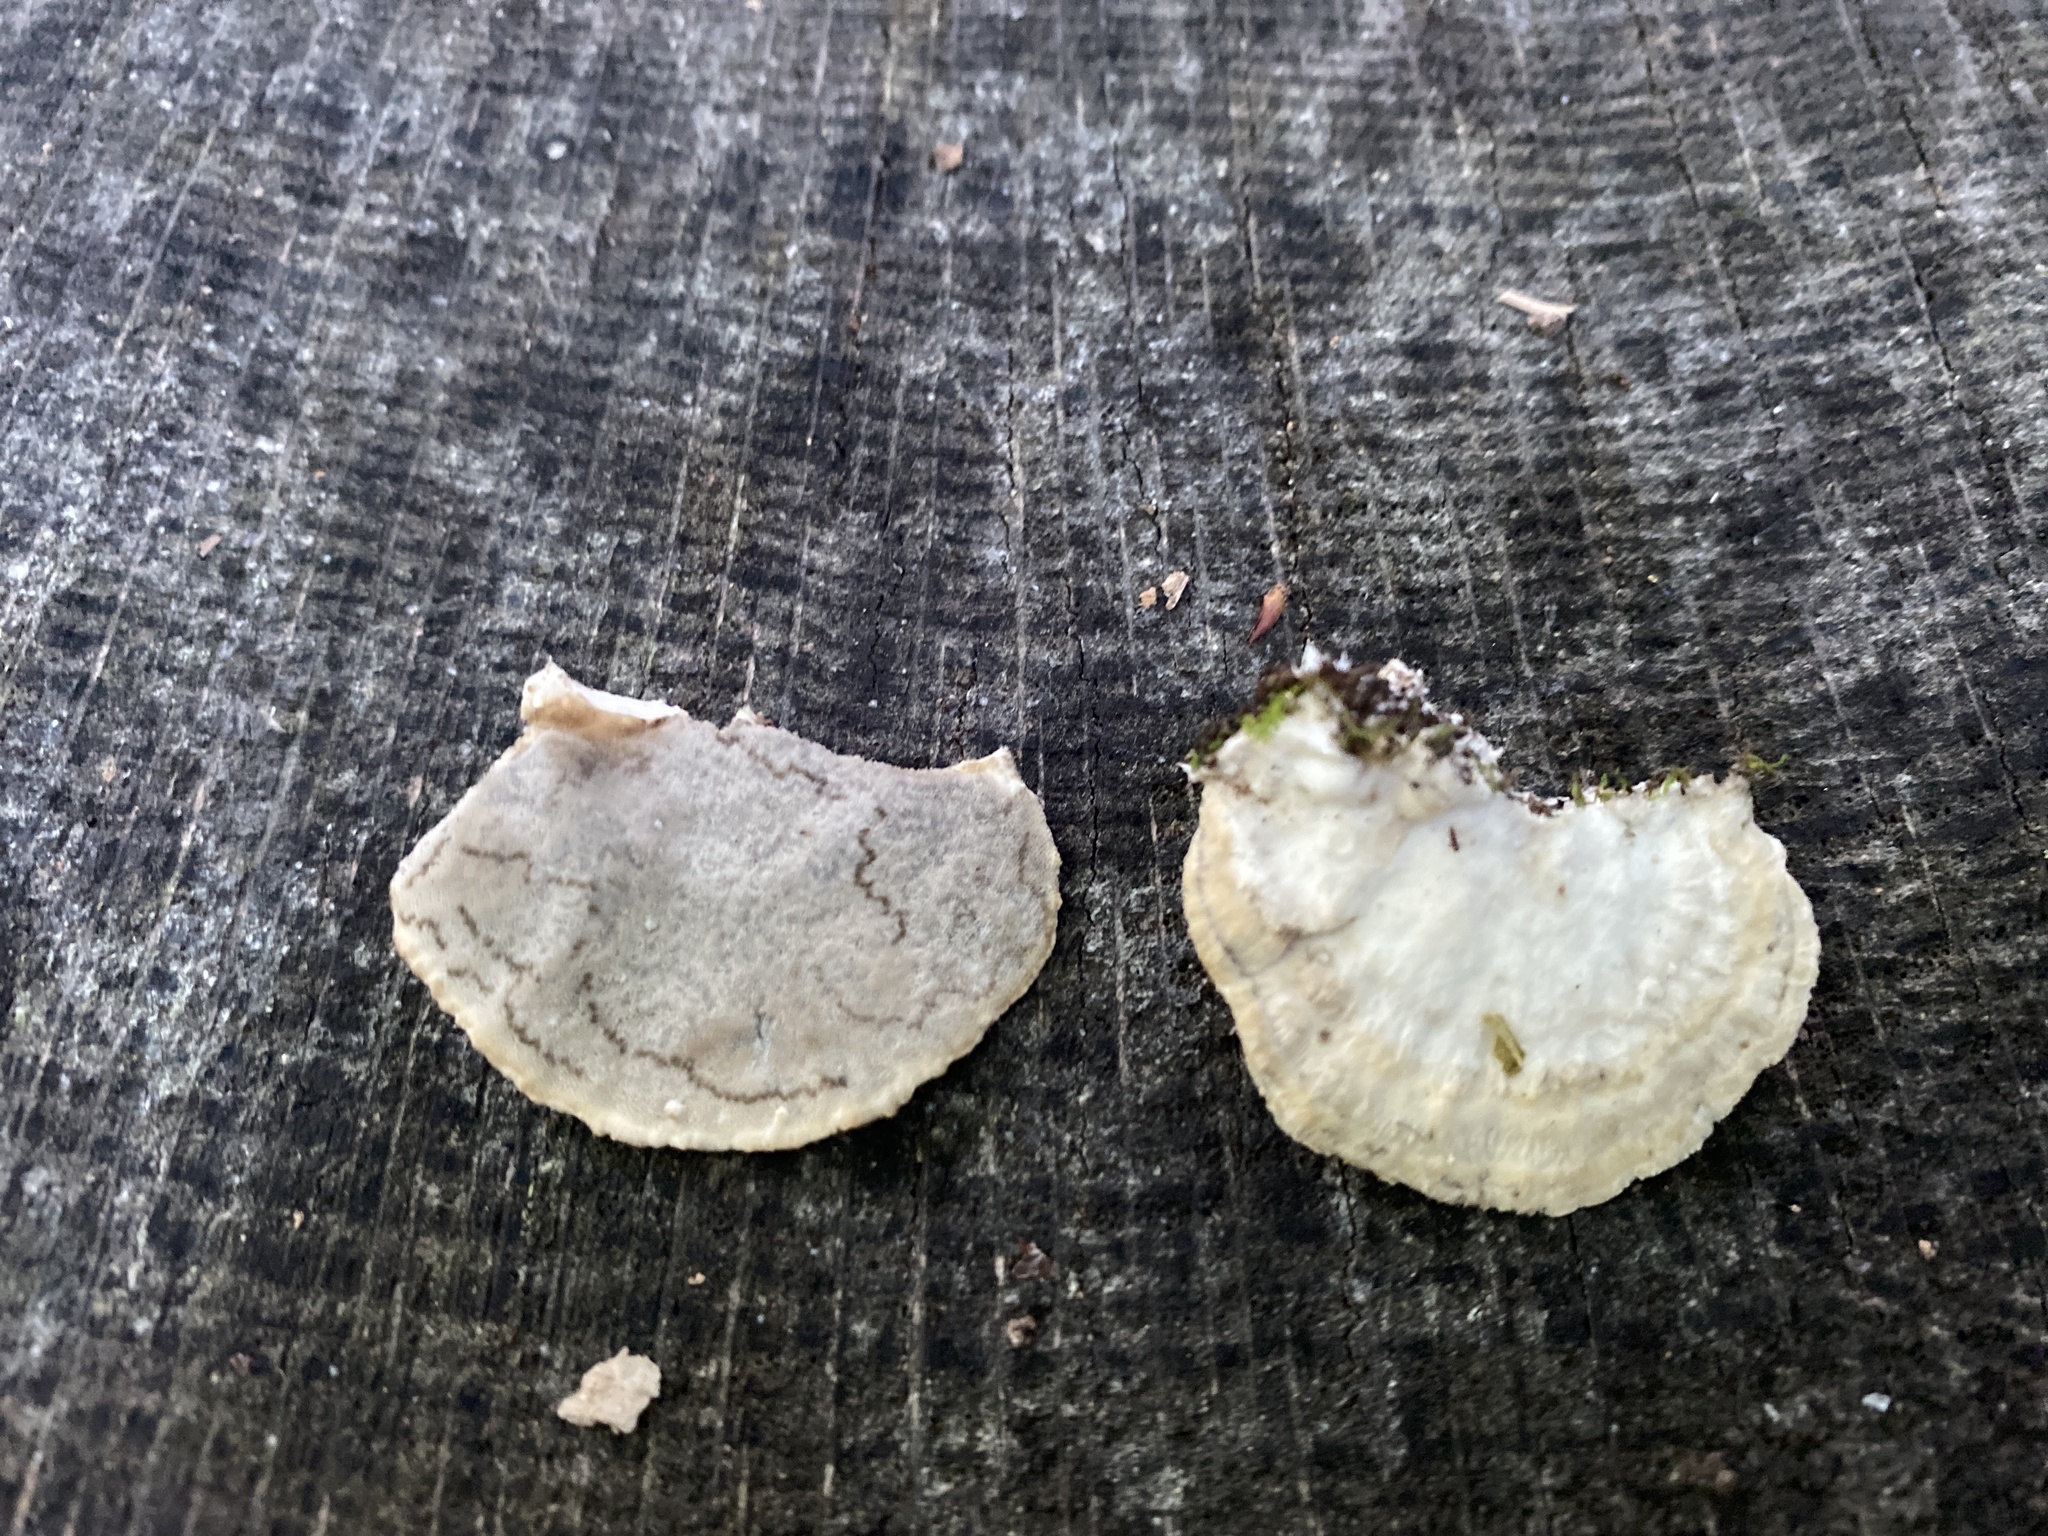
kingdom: Fungi
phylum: Basidiomycota
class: Agaricomycetes
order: Polyporales
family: Phanerochaetaceae
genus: Bjerkandera
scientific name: Bjerkandera adusta
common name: Smoky bracket
